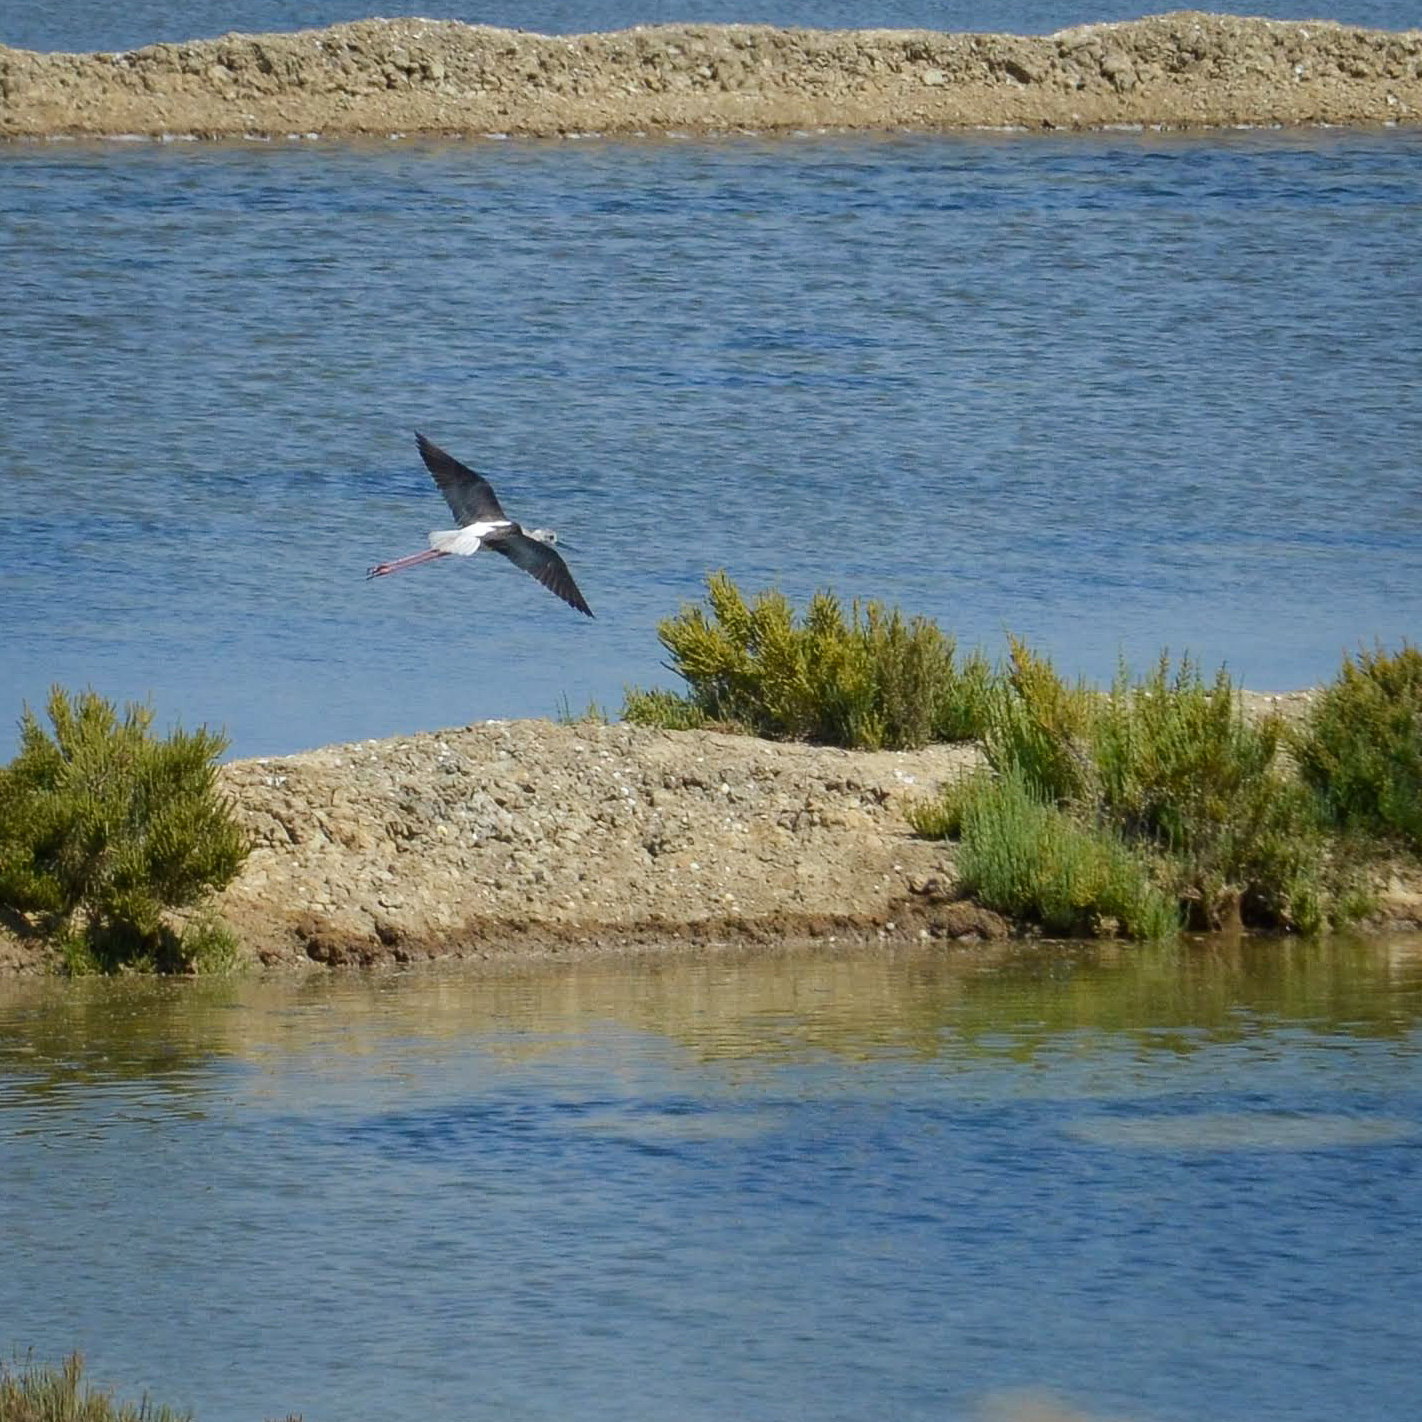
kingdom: Animalia
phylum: Chordata
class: Aves
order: Charadriiformes
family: Recurvirostridae
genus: Himantopus
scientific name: Himantopus himantopus
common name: Black-winged stilt
